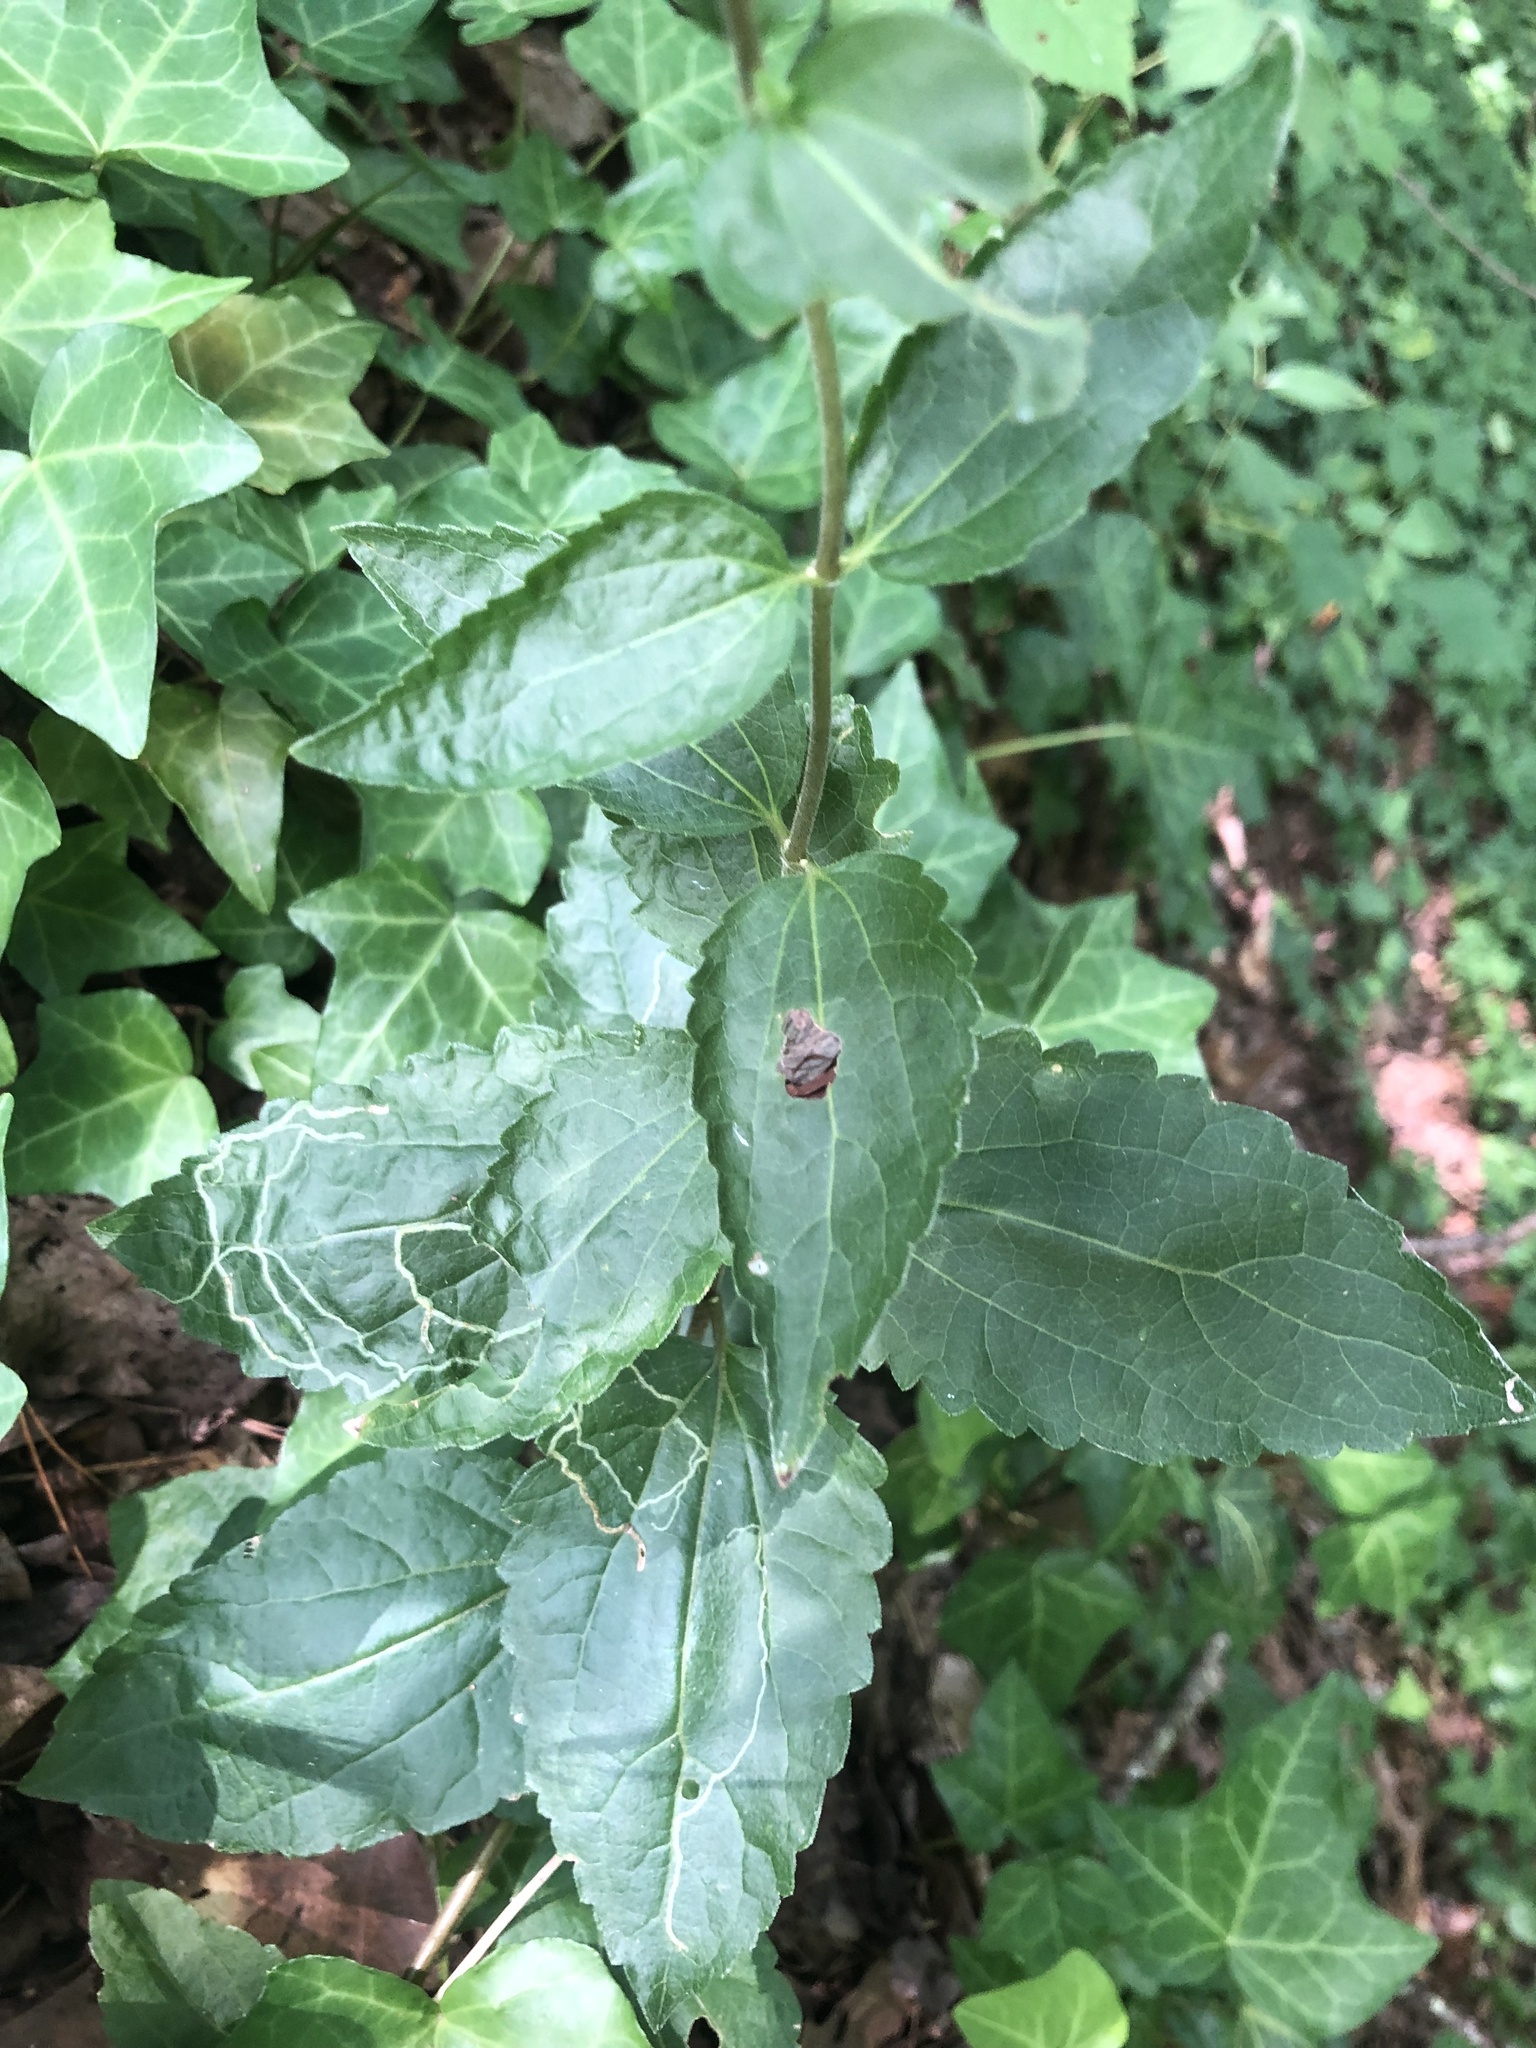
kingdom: Plantae
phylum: Tracheophyta
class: Magnoliopsida
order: Asterales
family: Asteraceae
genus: Ageratina
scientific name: Ageratina aromatica
